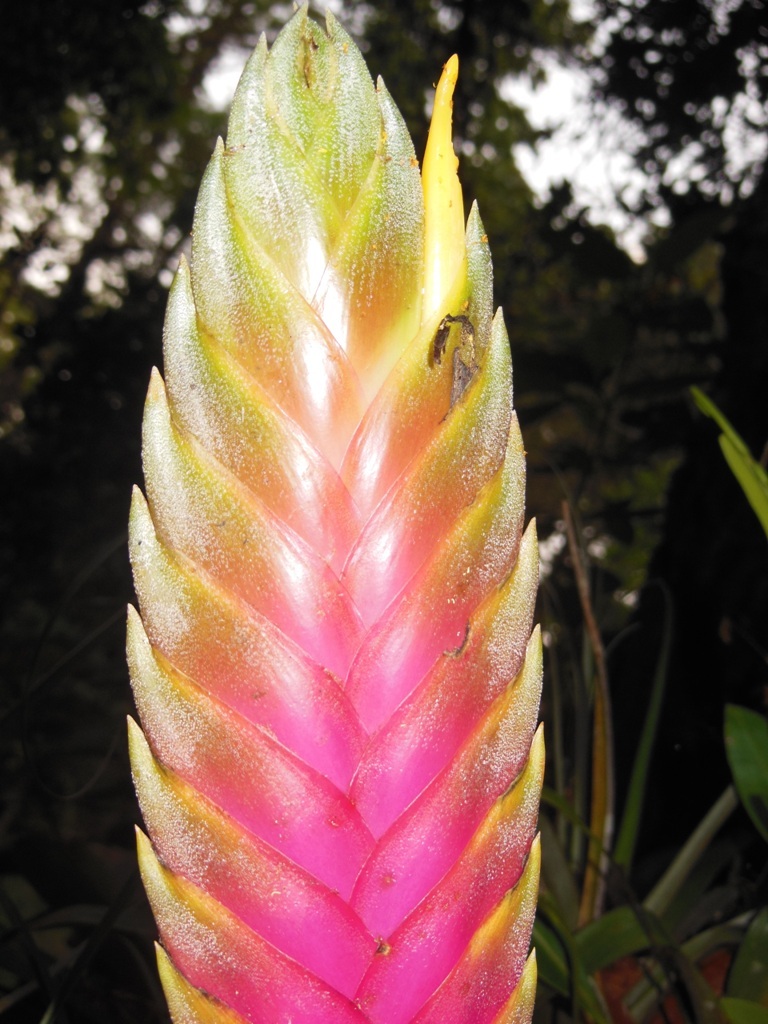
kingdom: Plantae
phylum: Tracheophyta
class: Liliopsida
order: Poales
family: Bromeliaceae
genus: Tillandsia
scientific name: Tillandsia lampropoda
